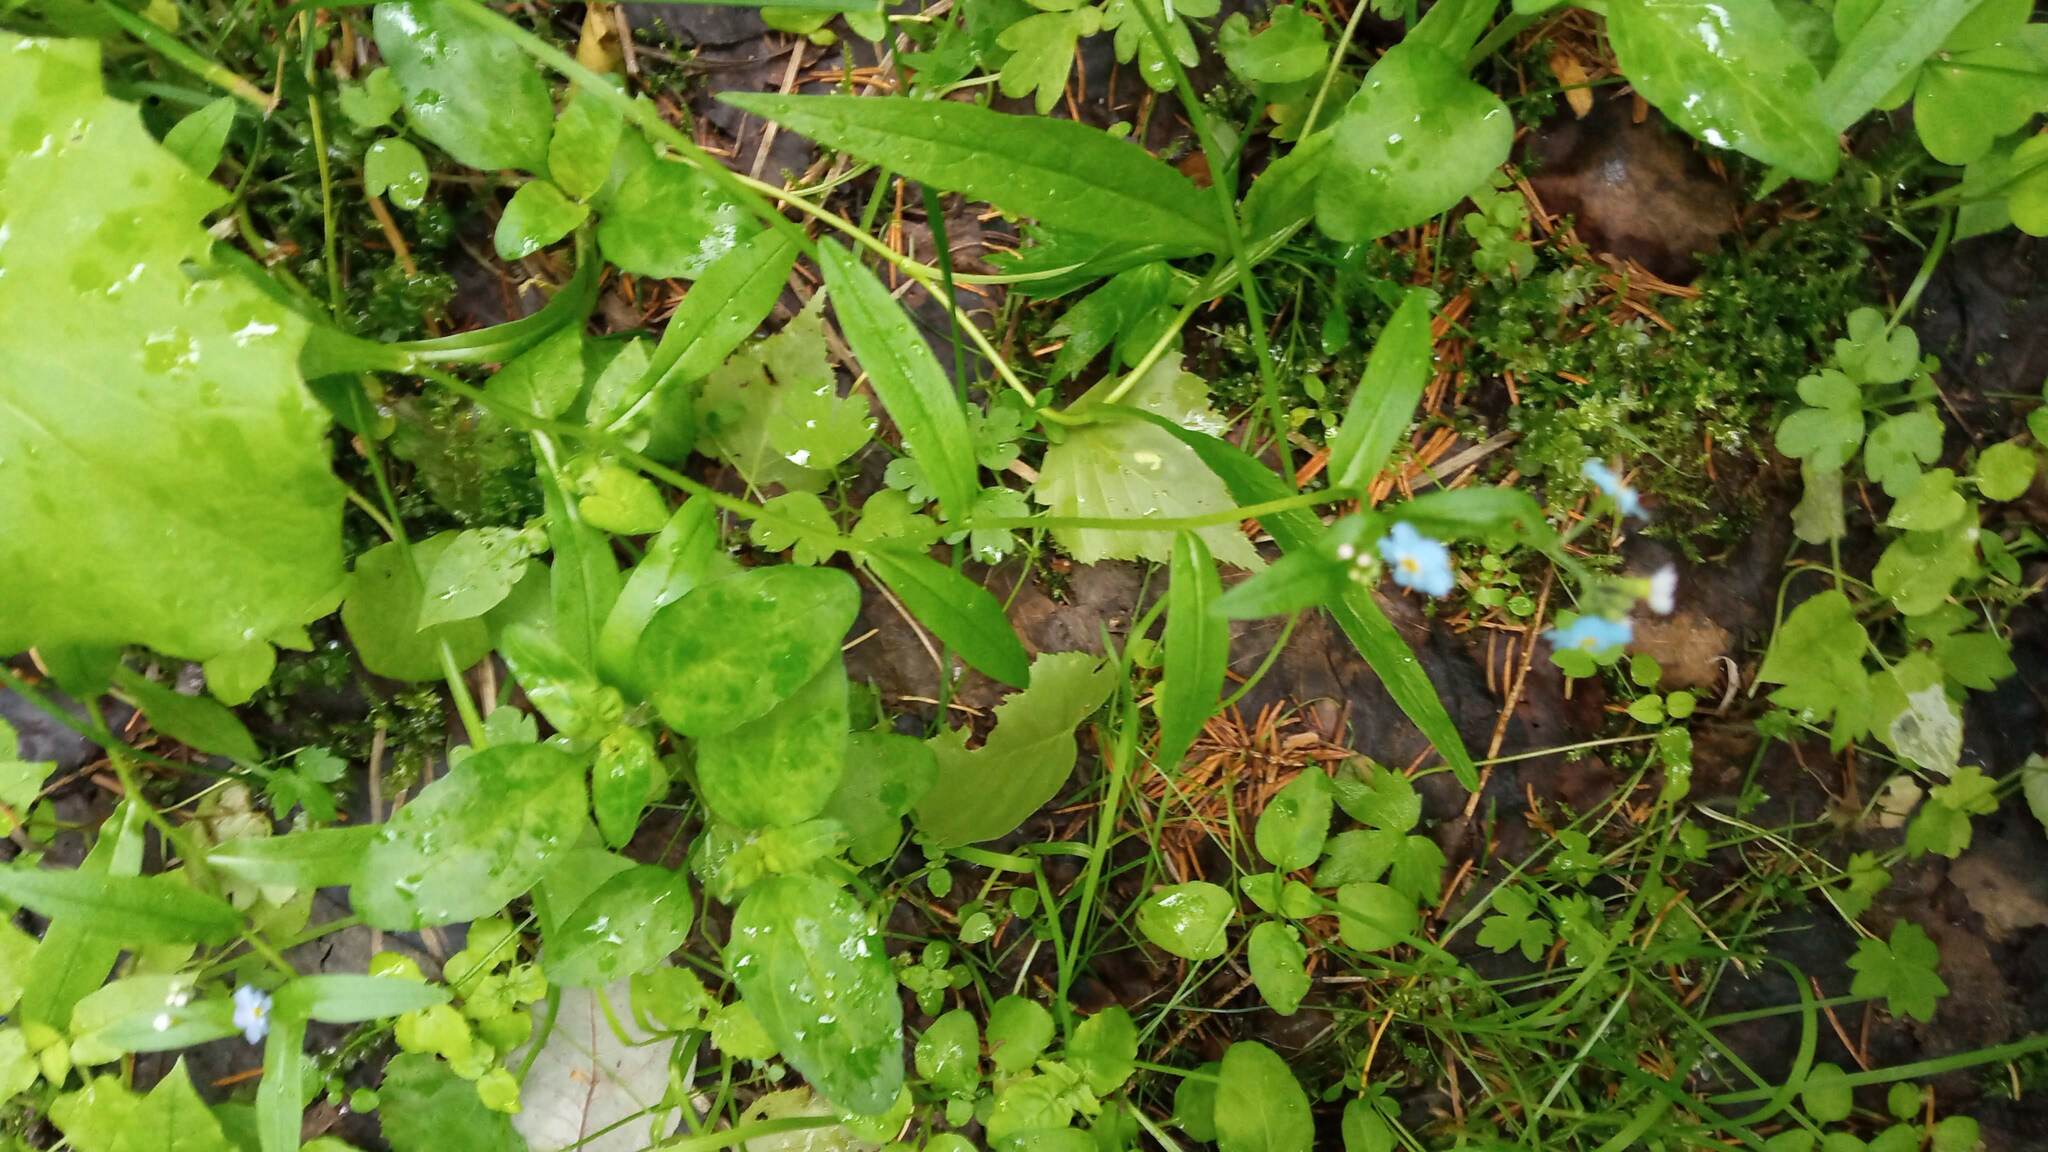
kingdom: Plantae
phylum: Tracheophyta
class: Magnoliopsida
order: Boraginales
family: Boraginaceae
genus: Myosotis
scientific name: Myosotis scorpioides
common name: Water forget-me-not
